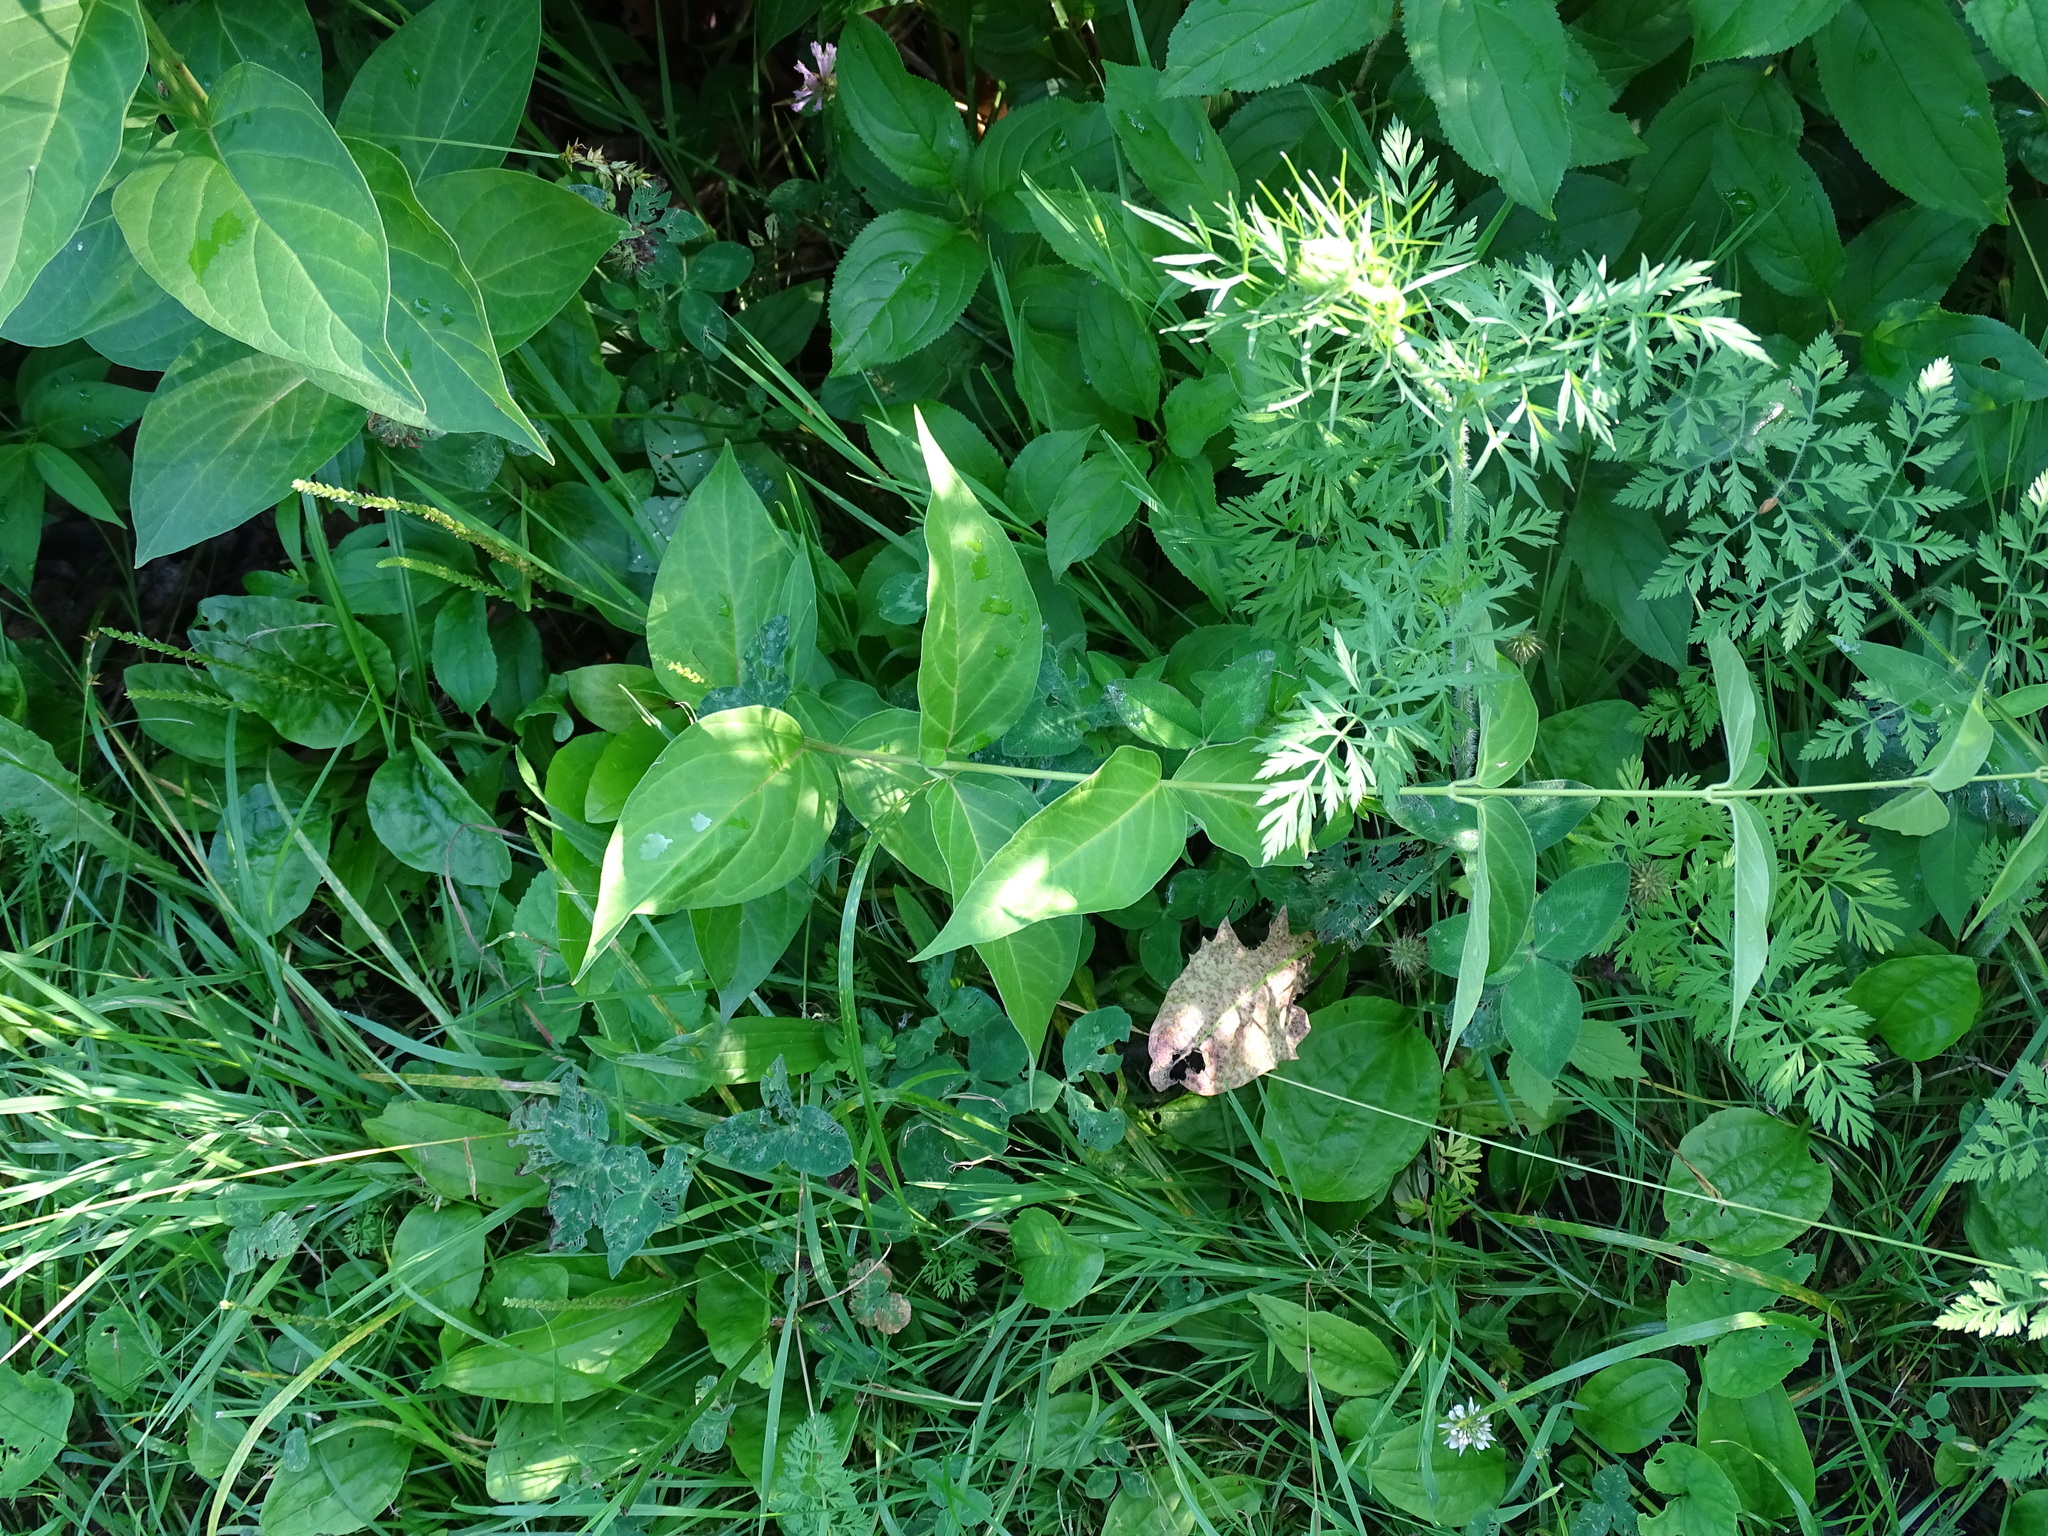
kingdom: Plantae
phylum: Tracheophyta
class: Magnoliopsida
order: Gentianales
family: Apocynaceae
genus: Vincetoxicum
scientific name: Vincetoxicum rossicum
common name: Dog-strangling vine
